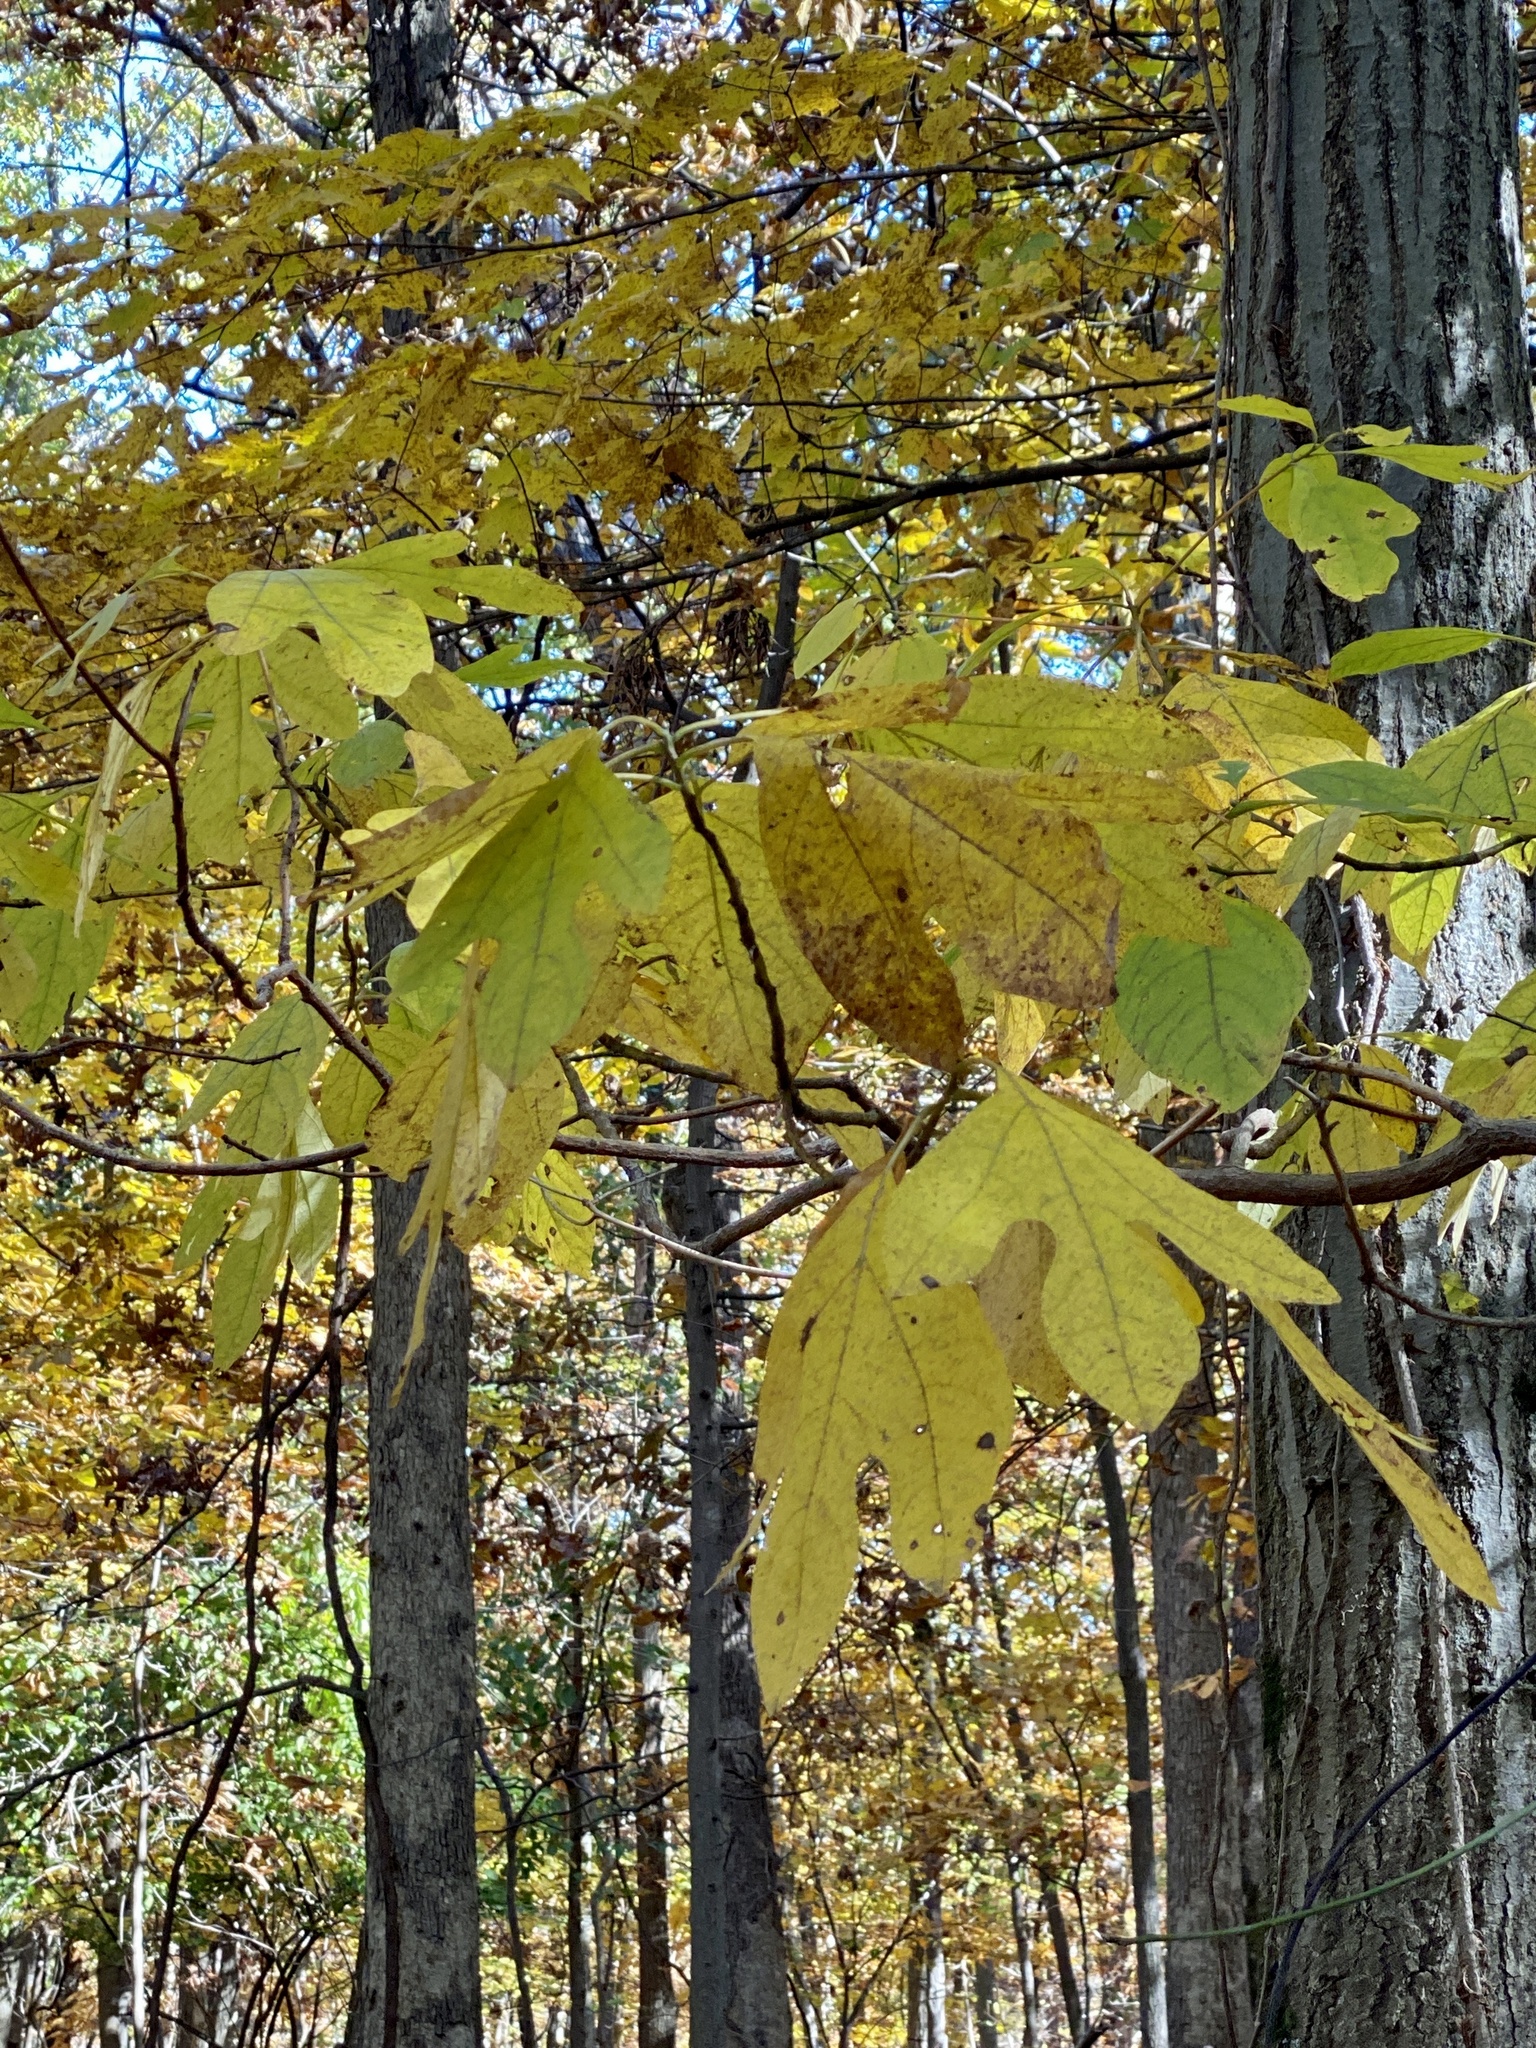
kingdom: Plantae
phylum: Tracheophyta
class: Magnoliopsida
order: Laurales
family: Lauraceae
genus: Sassafras
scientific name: Sassafras albidum
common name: Sassafras
